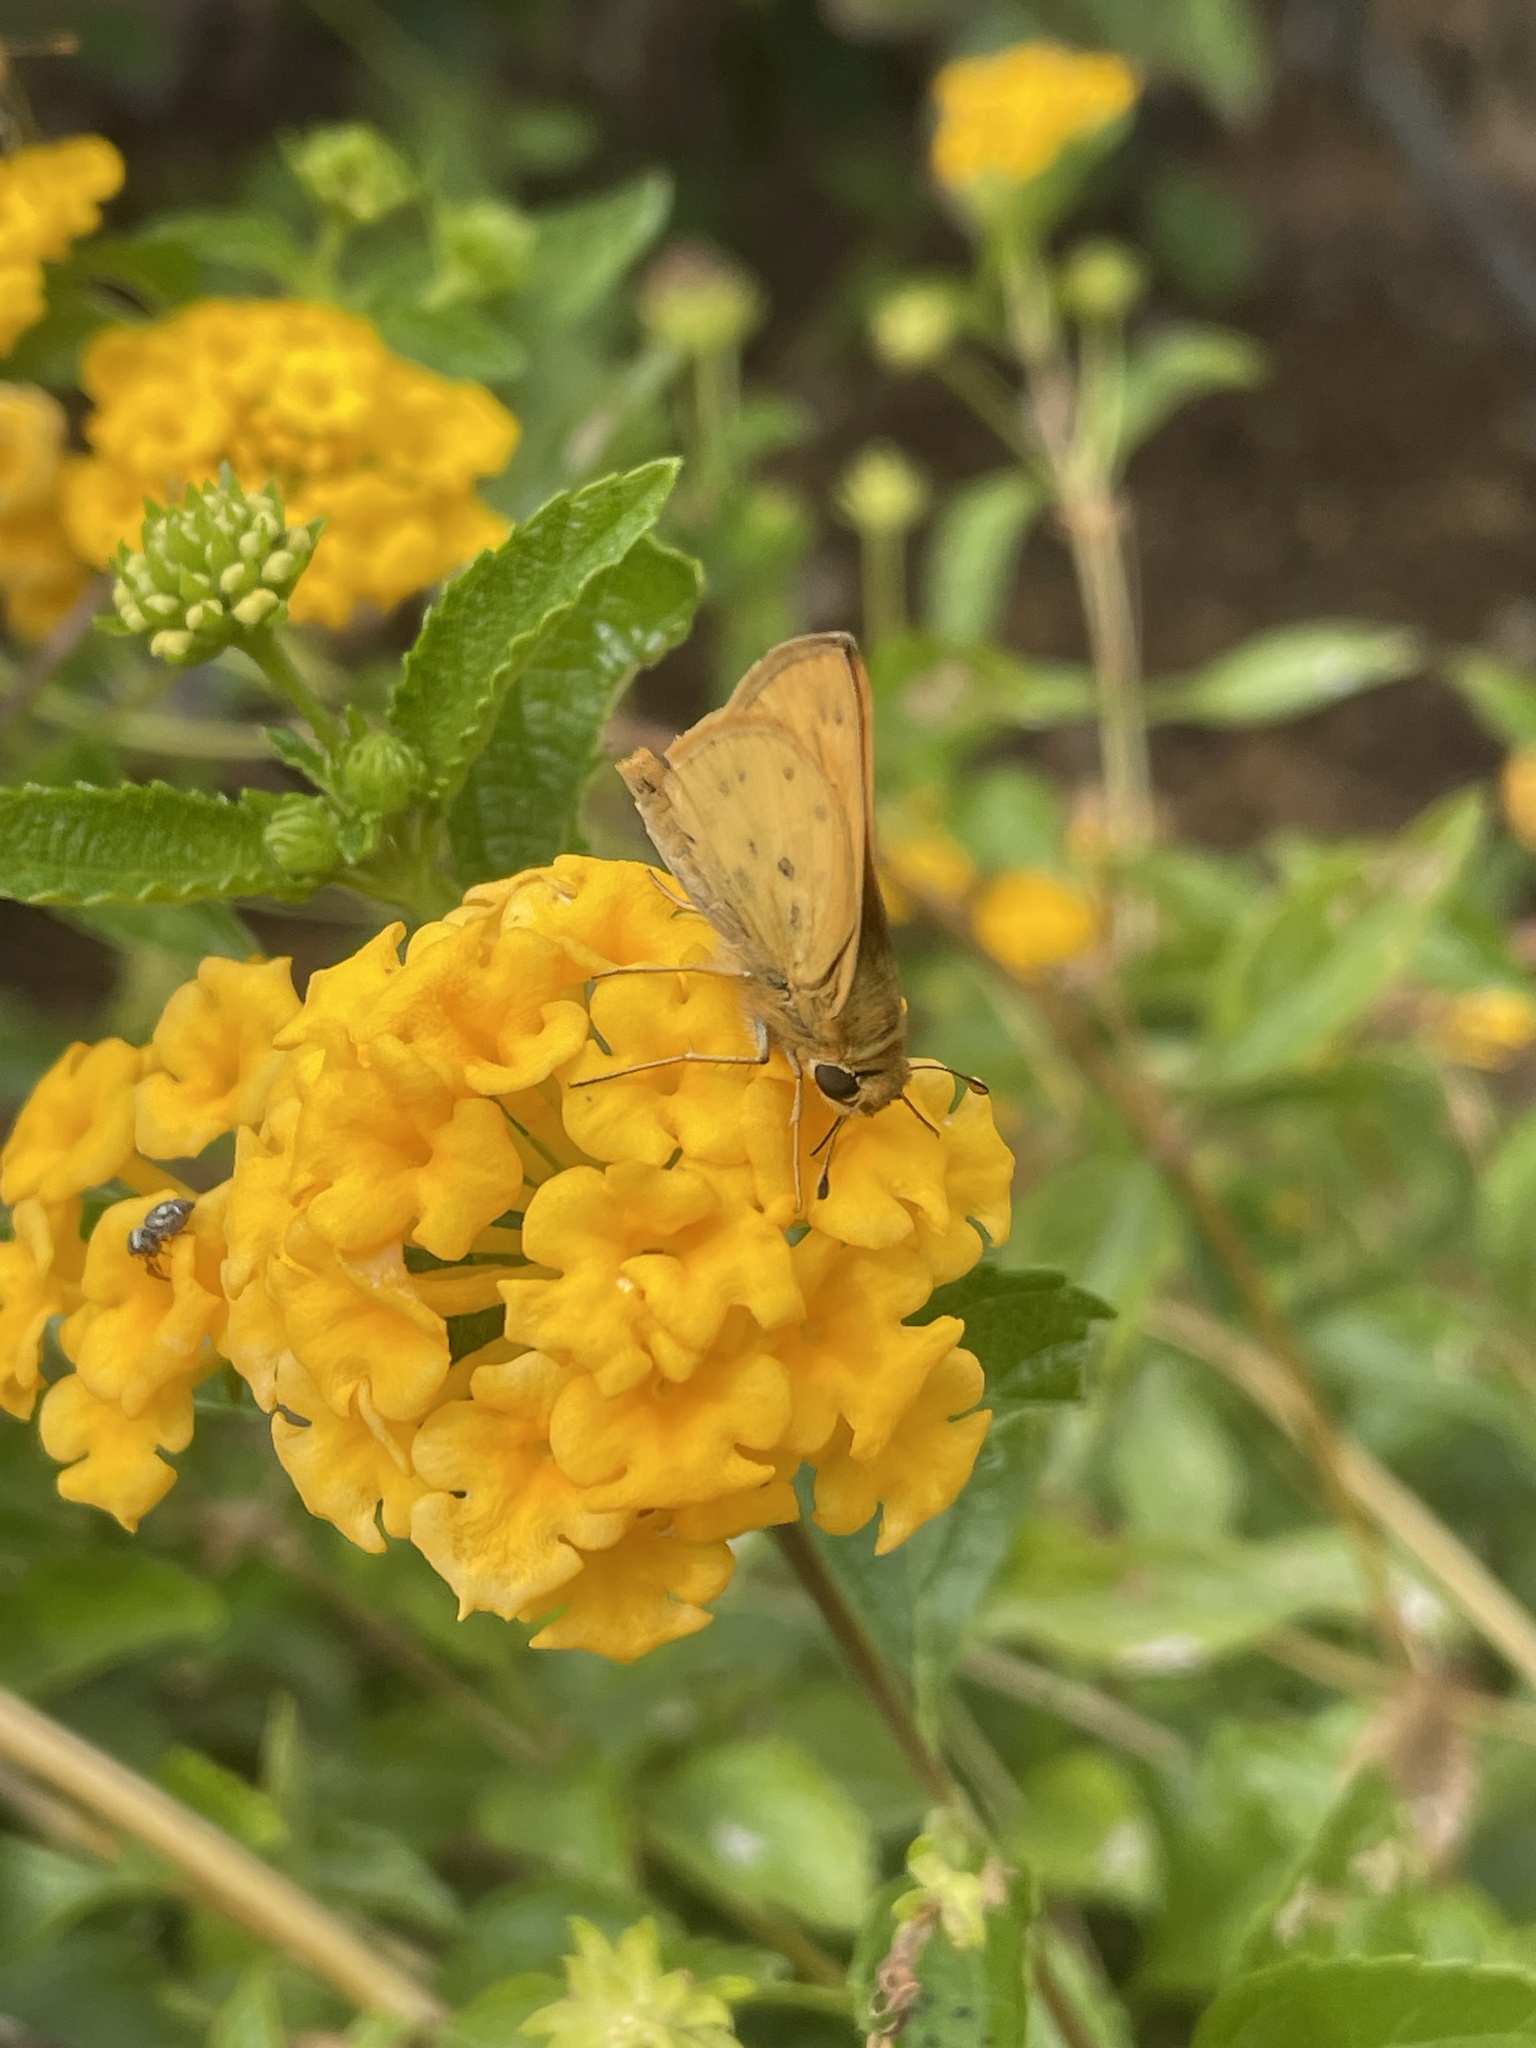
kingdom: Animalia
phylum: Arthropoda
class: Insecta
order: Lepidoptera
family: Hesperiidae
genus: Hylephila
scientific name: Hylephila phyleus
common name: Fiery skipper
